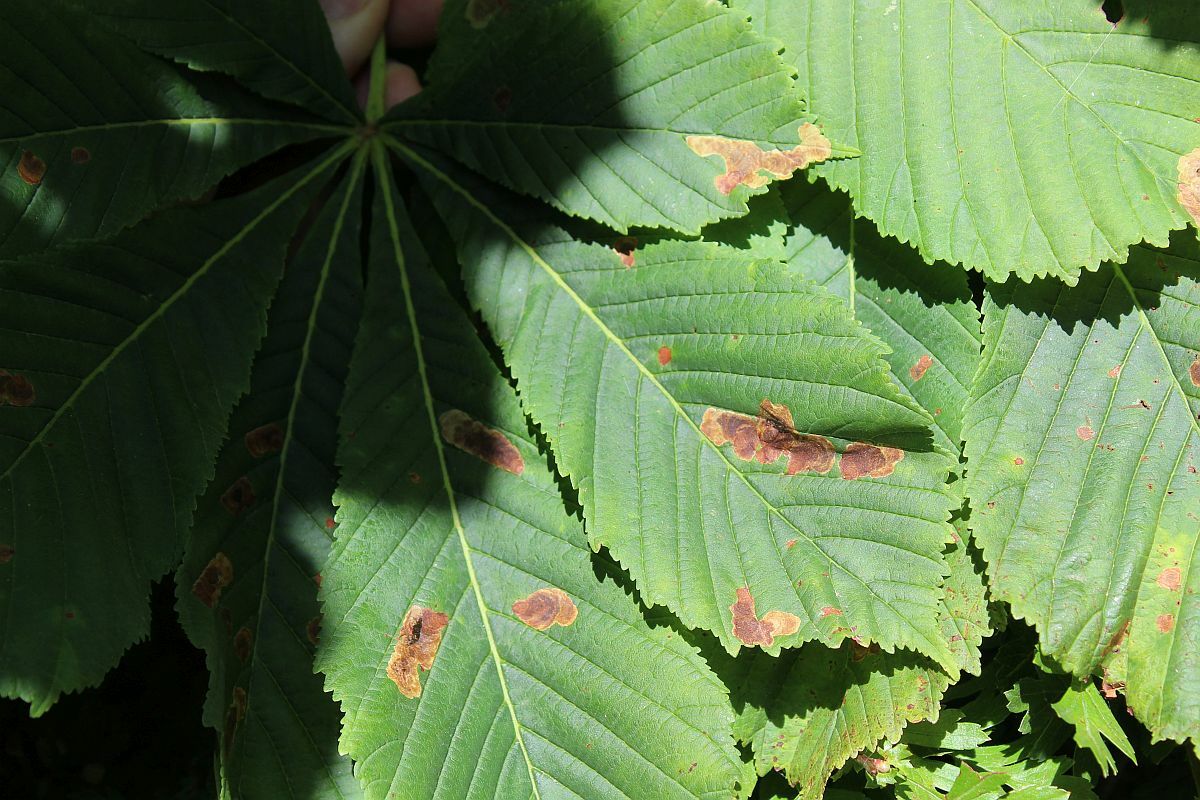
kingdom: Animalia
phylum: Arthropoda
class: Insecta
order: Lepidoptera
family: Gracillariidae
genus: Cameraria
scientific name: Cameraria ohridella
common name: Horse-chestnut leaf-miner
